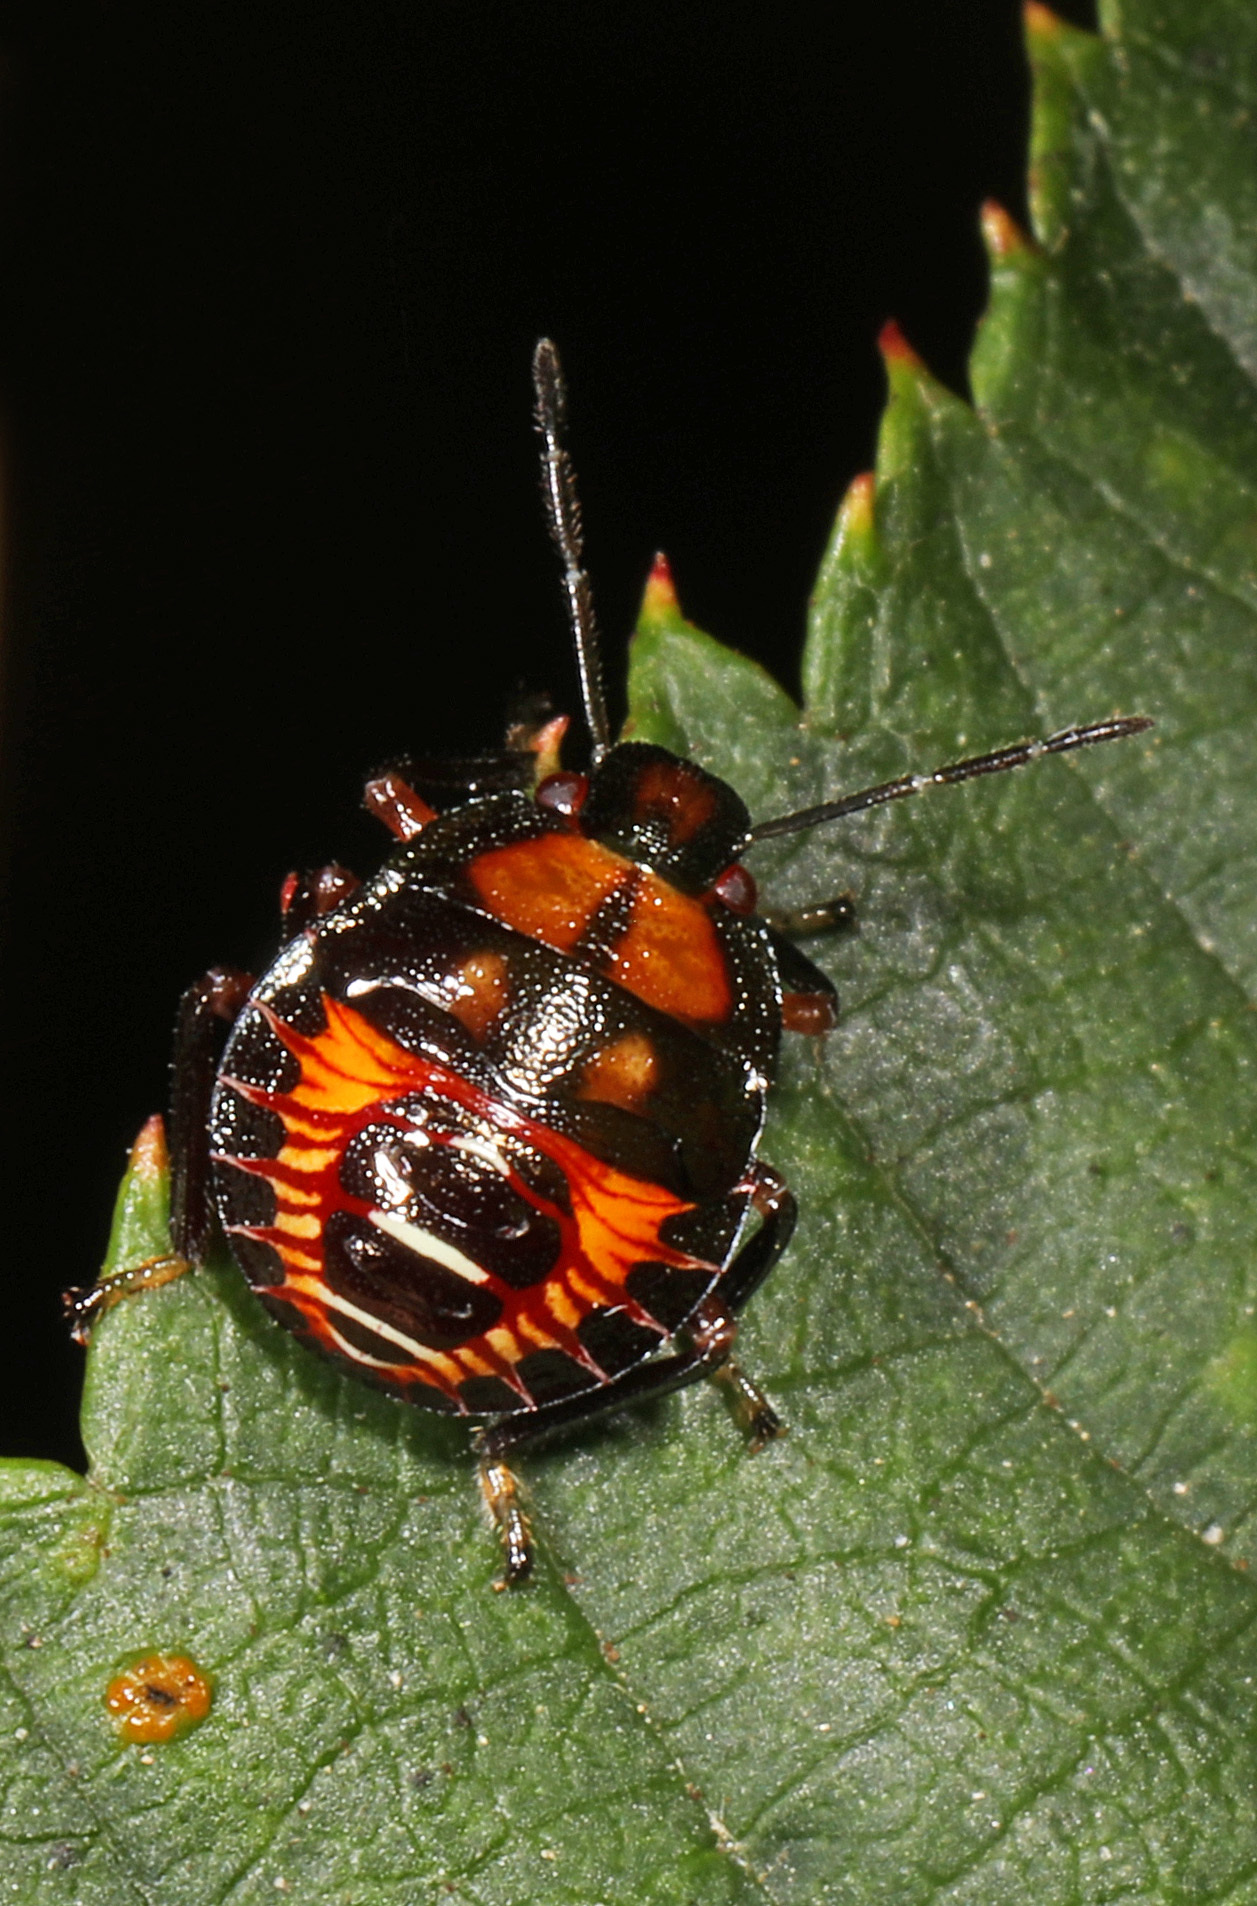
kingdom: Animalia
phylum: Arthropoda
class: Insecta
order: Hemiptera
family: Pentatomidae
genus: Podisus
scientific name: Podisus
